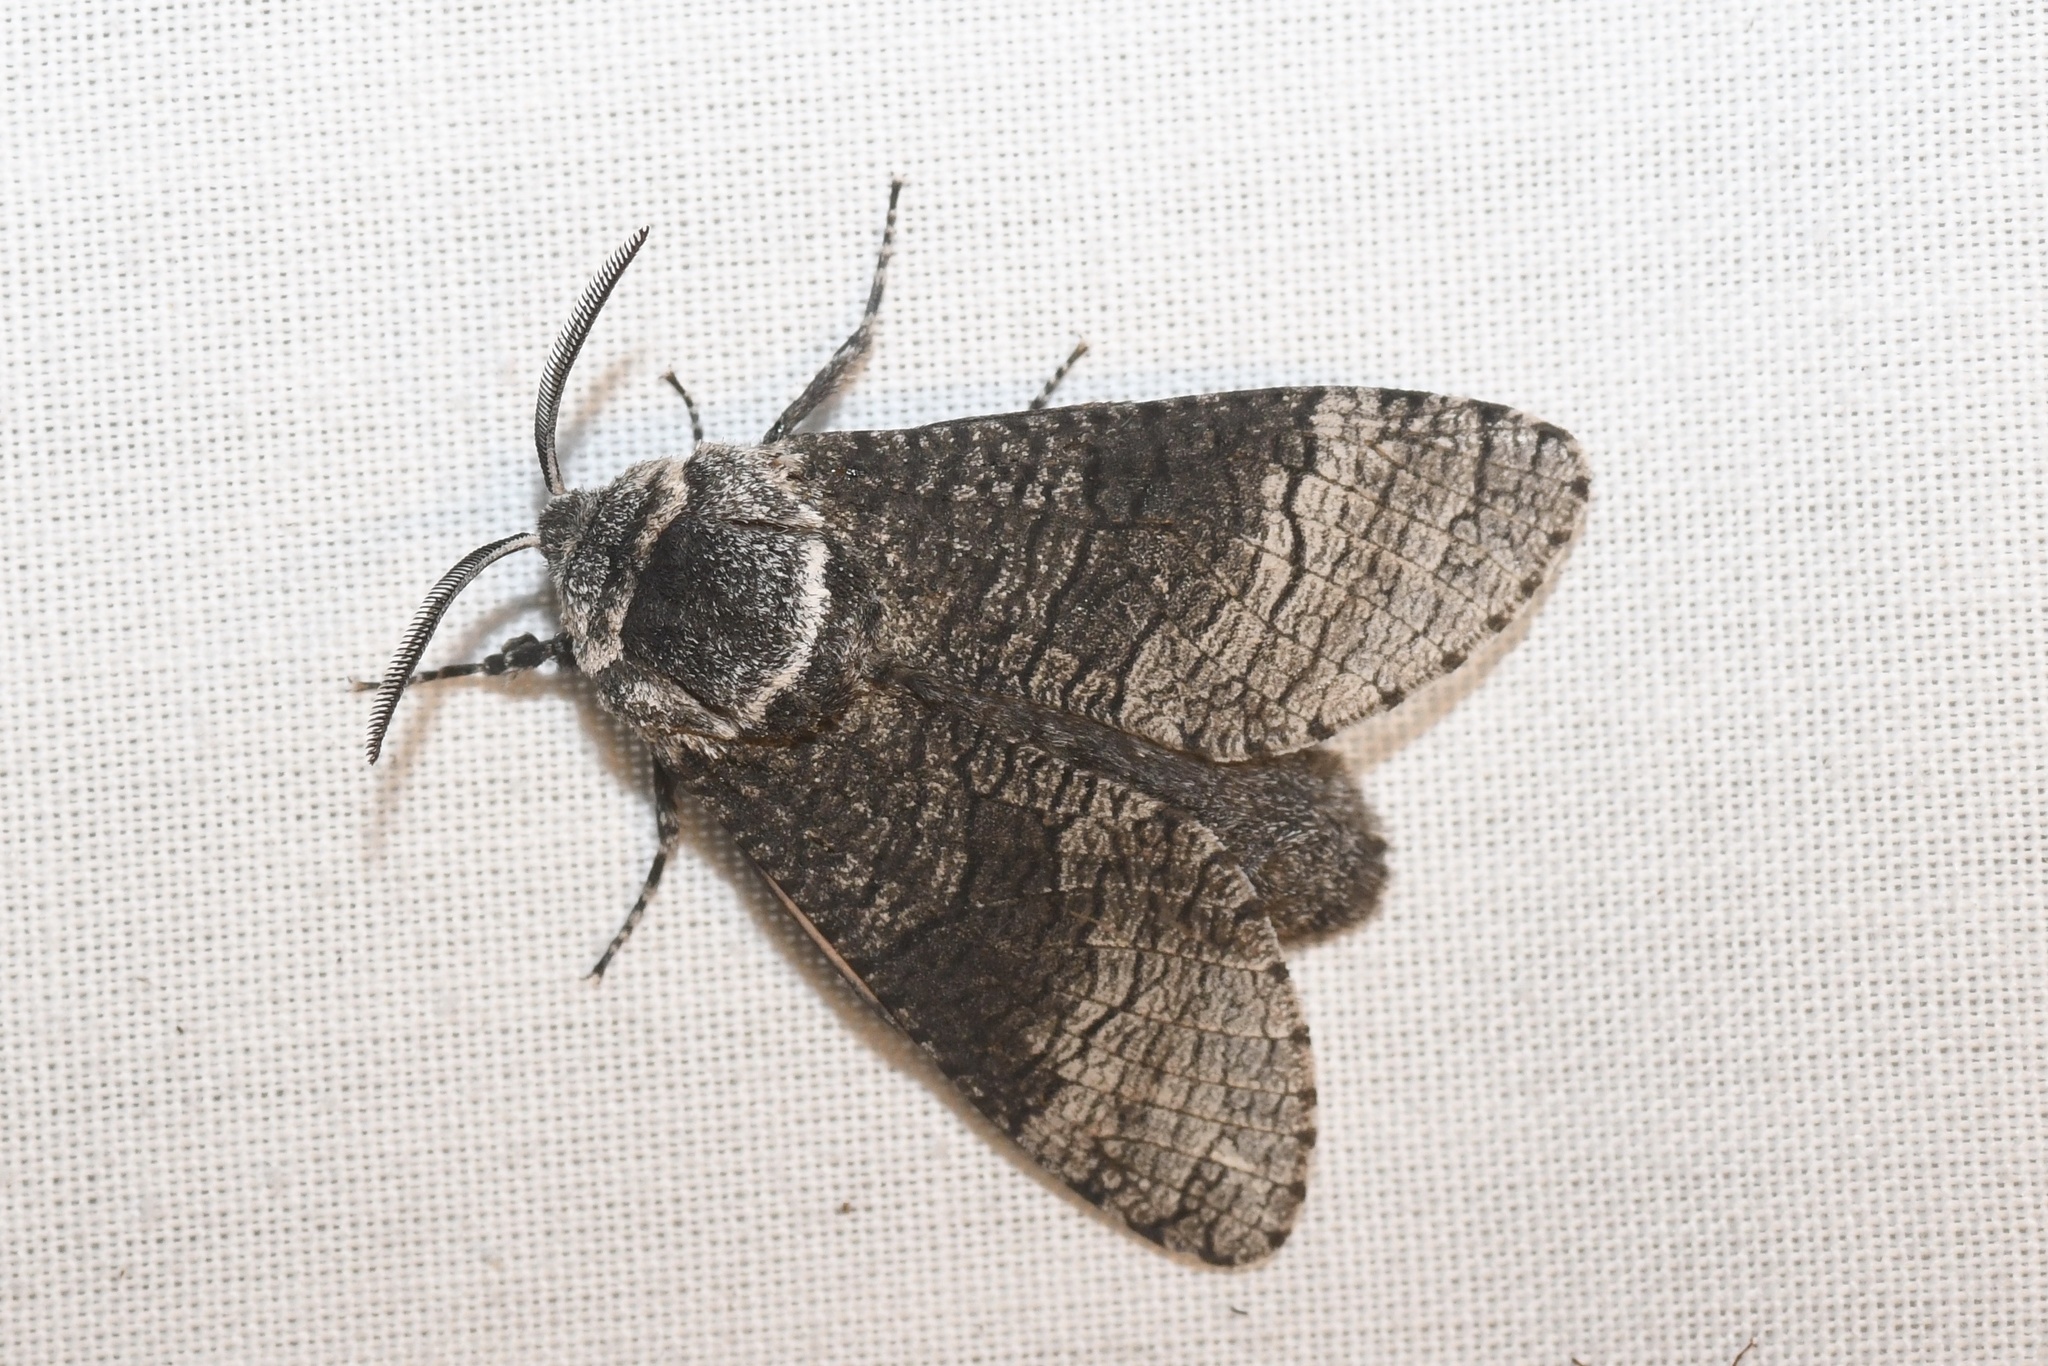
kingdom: Animalia
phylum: Arthropoda
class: Insecta
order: Lepidoptera
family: Cossidae
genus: Acossus
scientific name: Acossus centerensis
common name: Poplar carpenterworm moth
